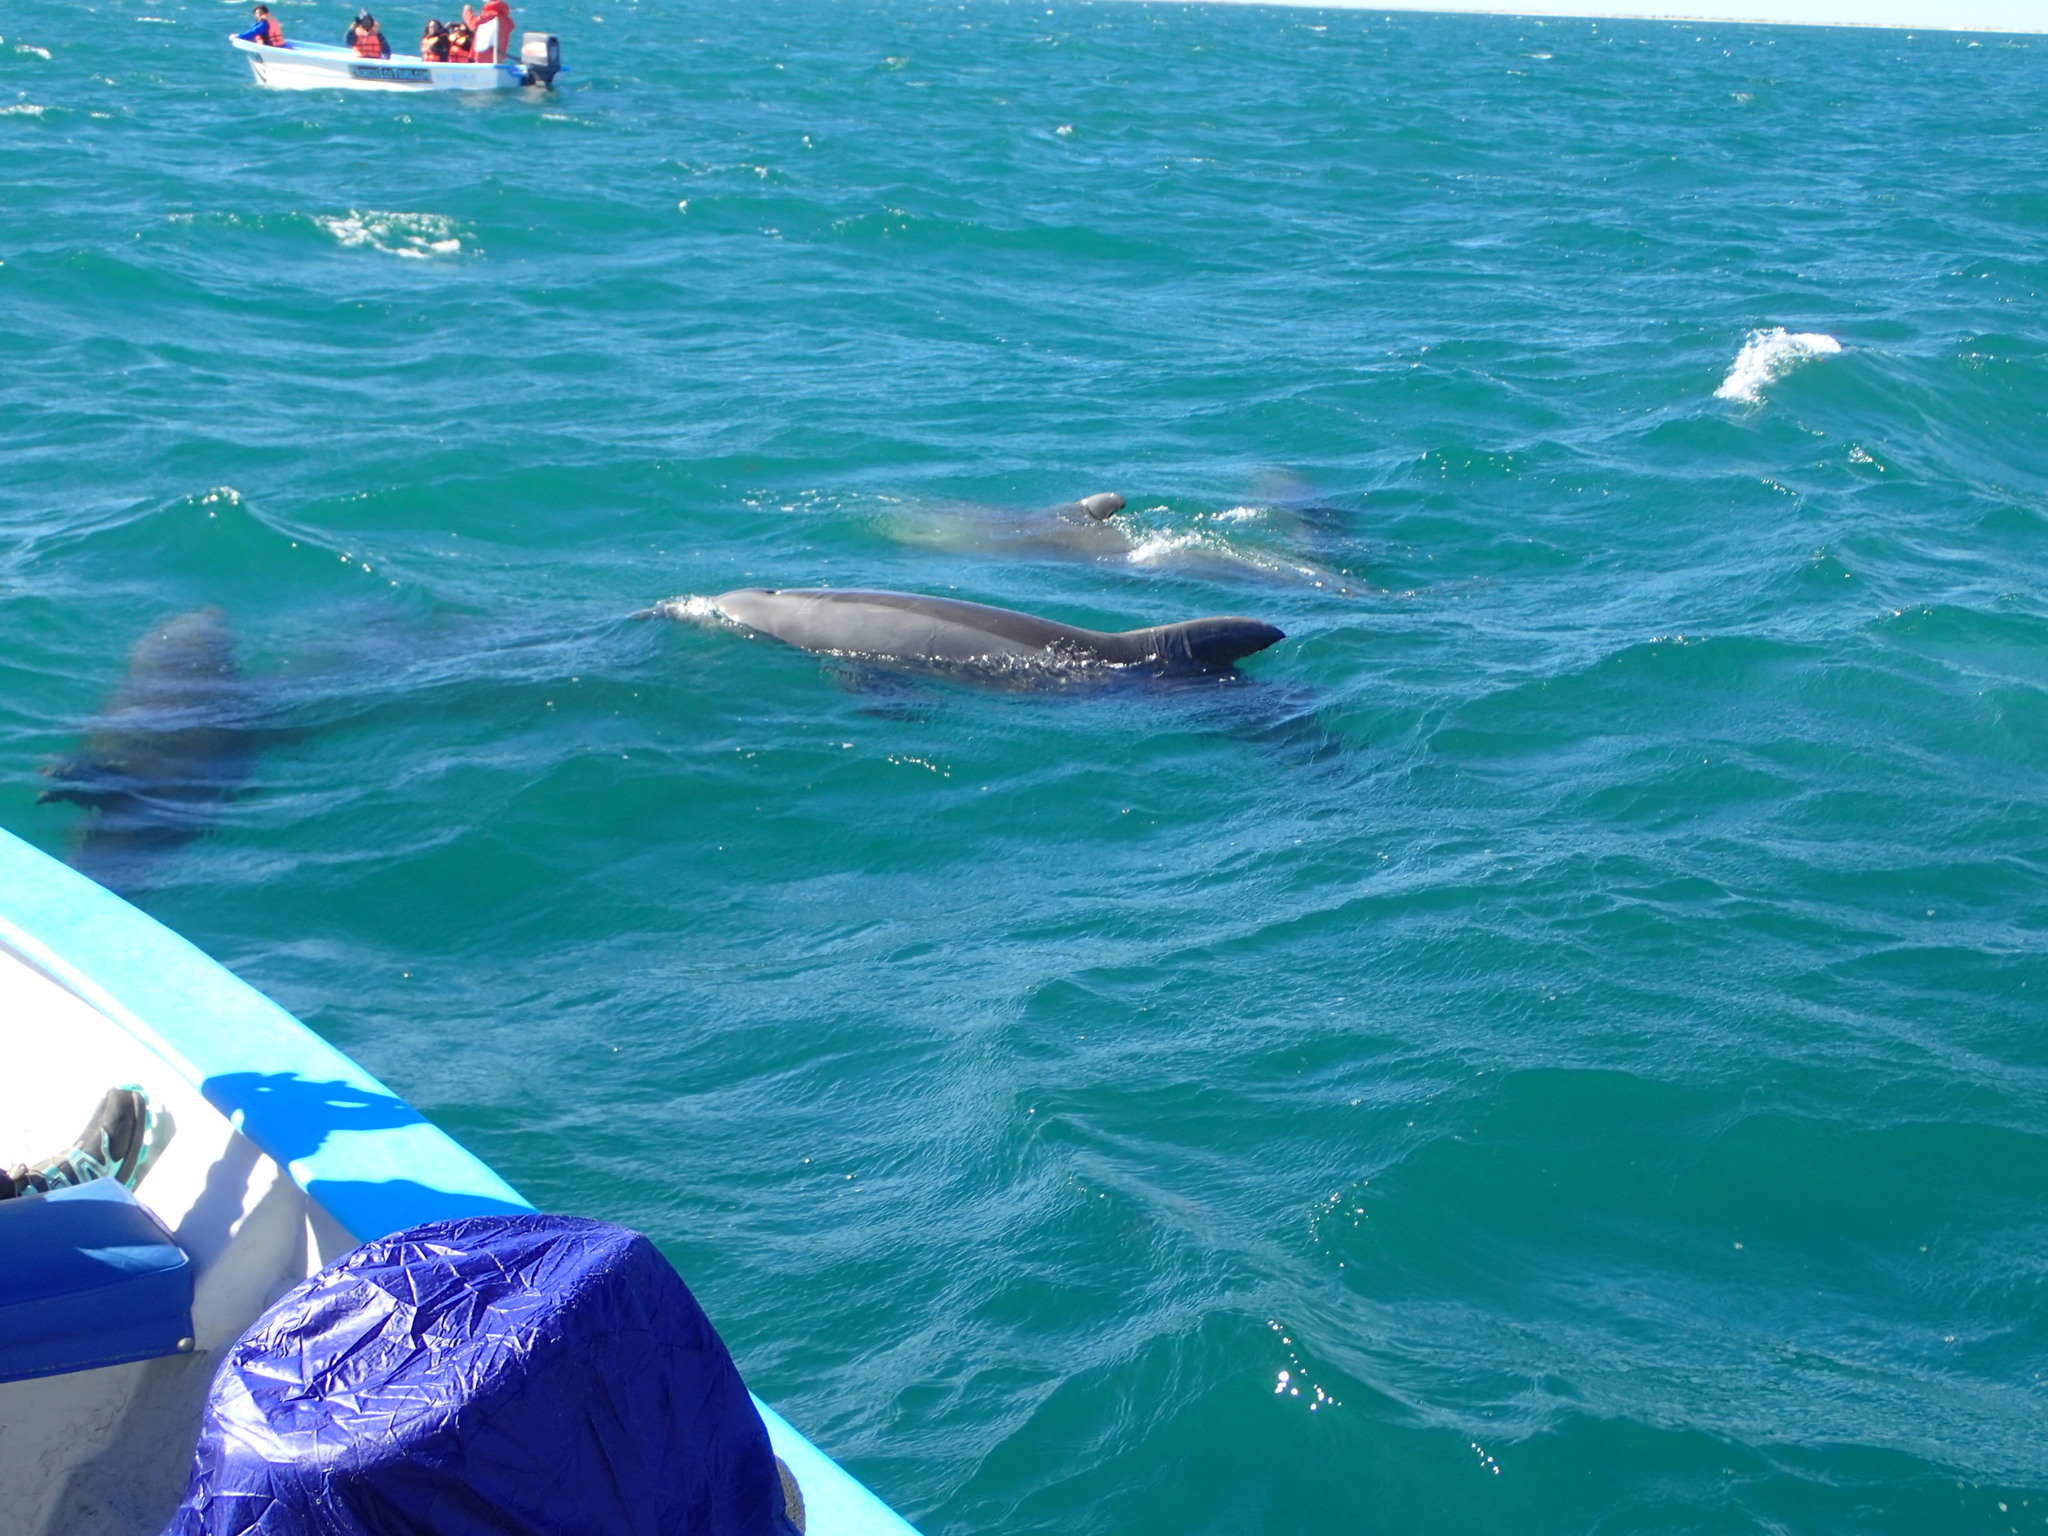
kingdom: Animalia
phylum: Chordata
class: Mammalia
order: Cetacea
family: Delphinidae
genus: Tursiops
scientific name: Tursiops truncatus
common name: Bottlenose dolphin
